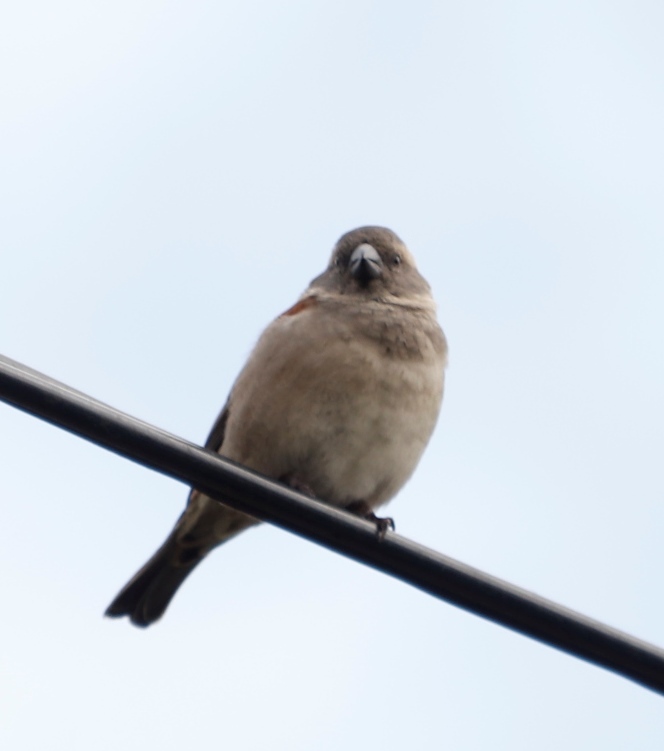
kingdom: Animalia
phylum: Chordata
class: Aves
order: Passeriformes
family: Passeridae
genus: Passer
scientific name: Passer melanurus
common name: Cape sparrow
